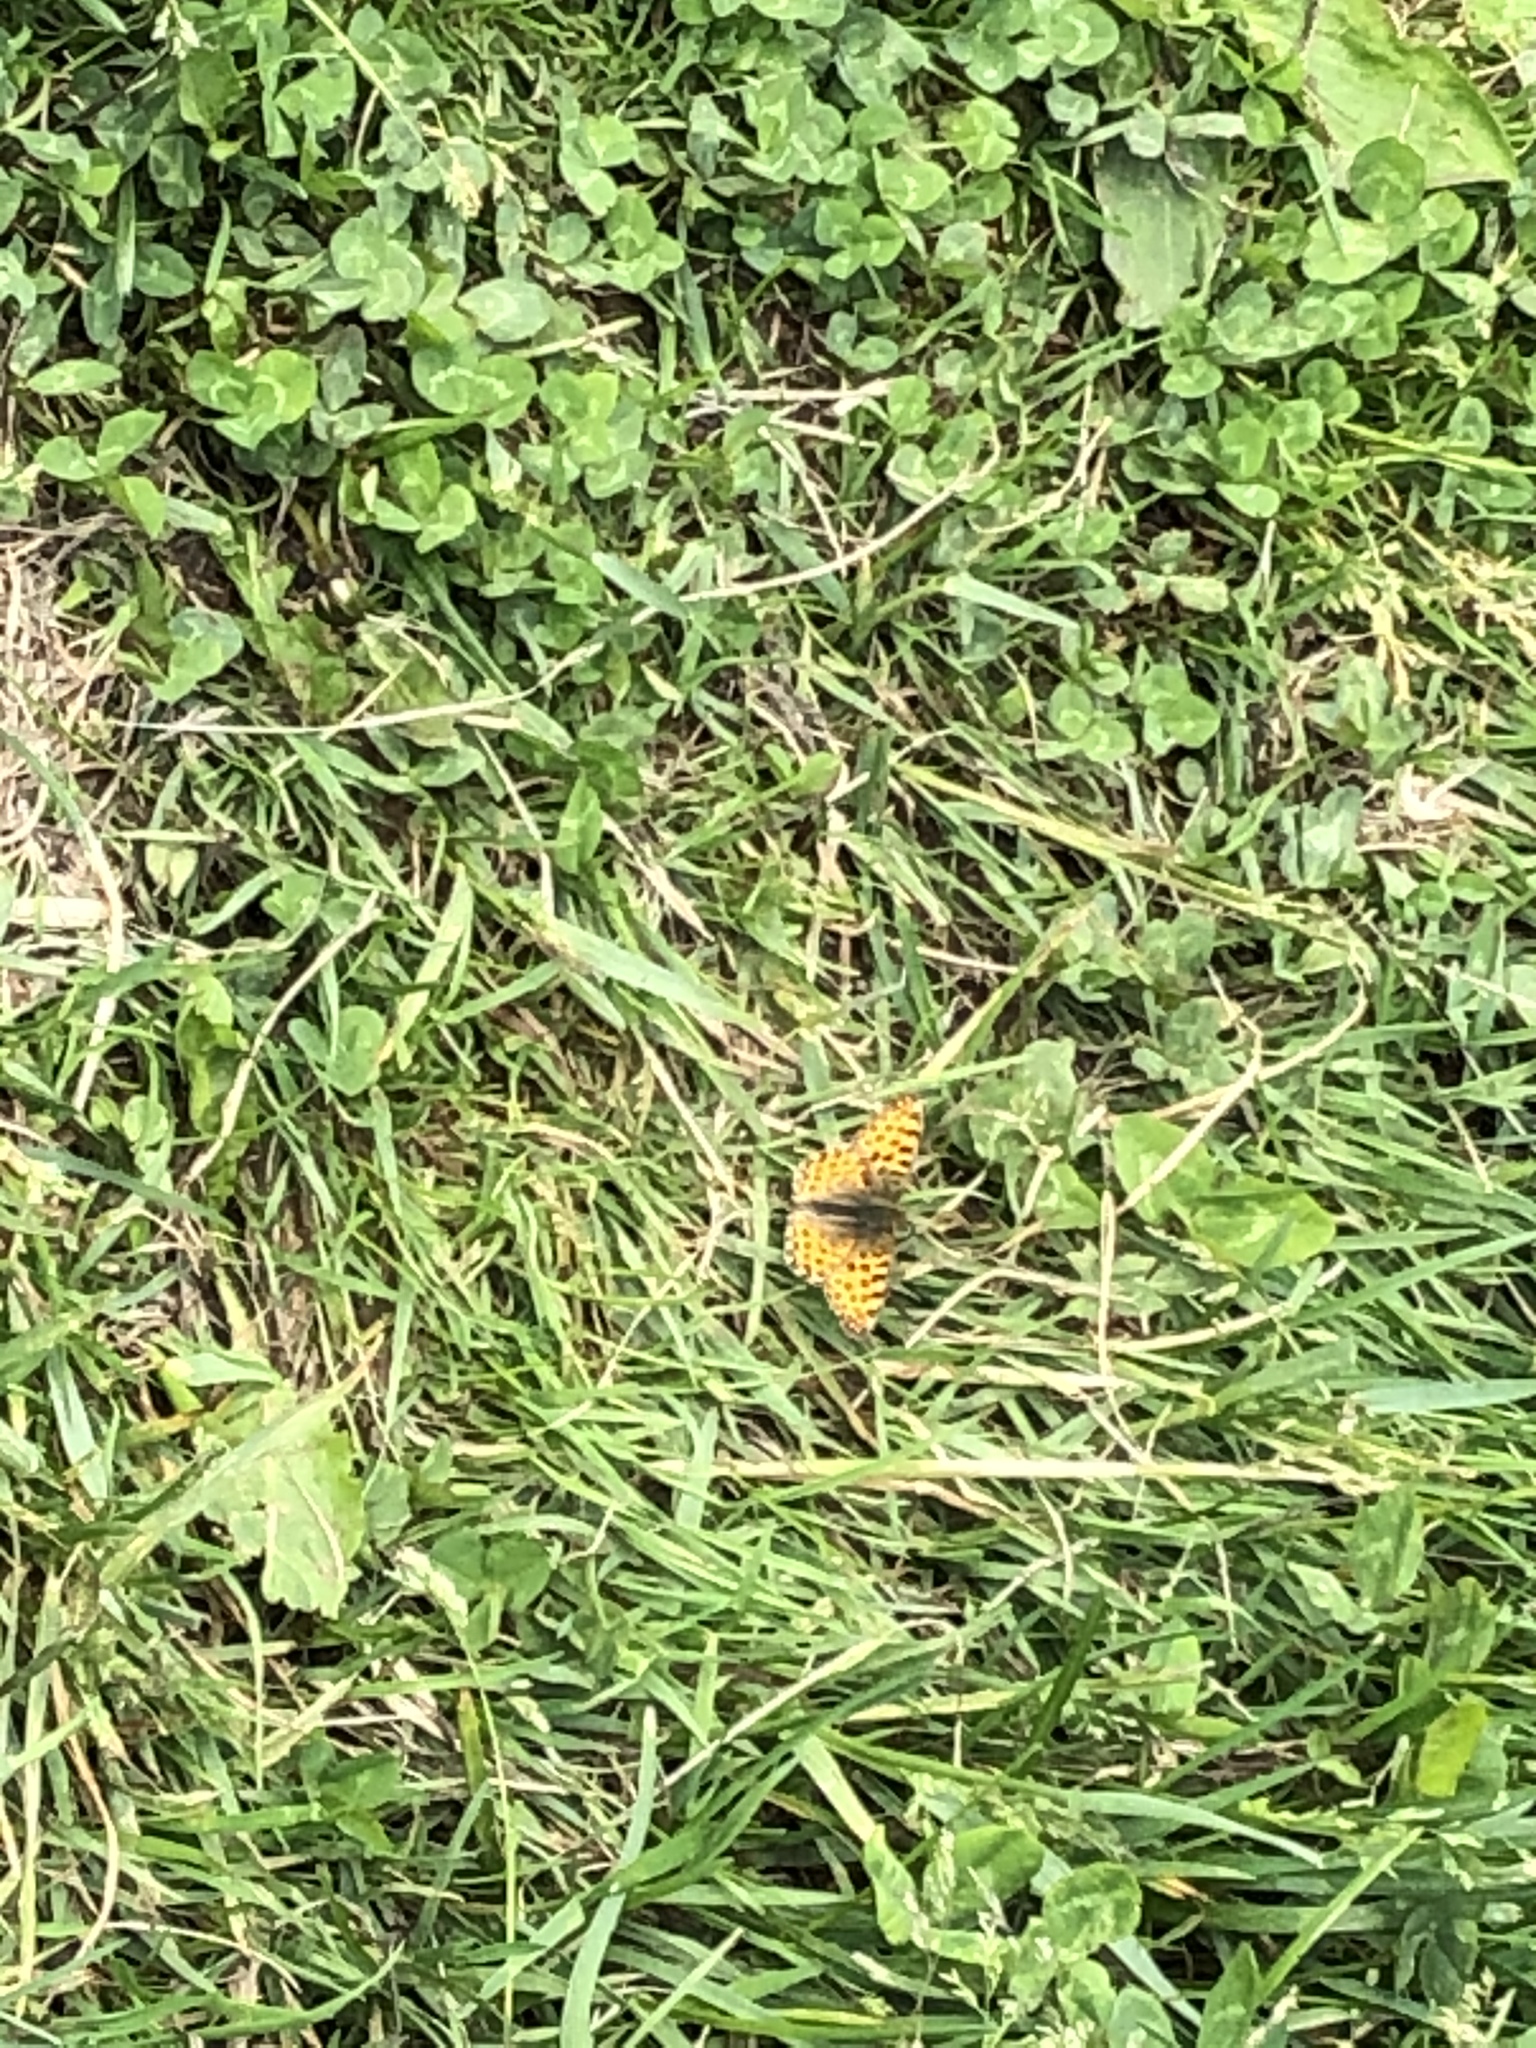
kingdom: Animalia
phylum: Arthropoda
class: Insecta
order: Lepidoptera
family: Nymphalidae
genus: Issoria
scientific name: Issoria lathonia
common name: Queen of spain fritillary
